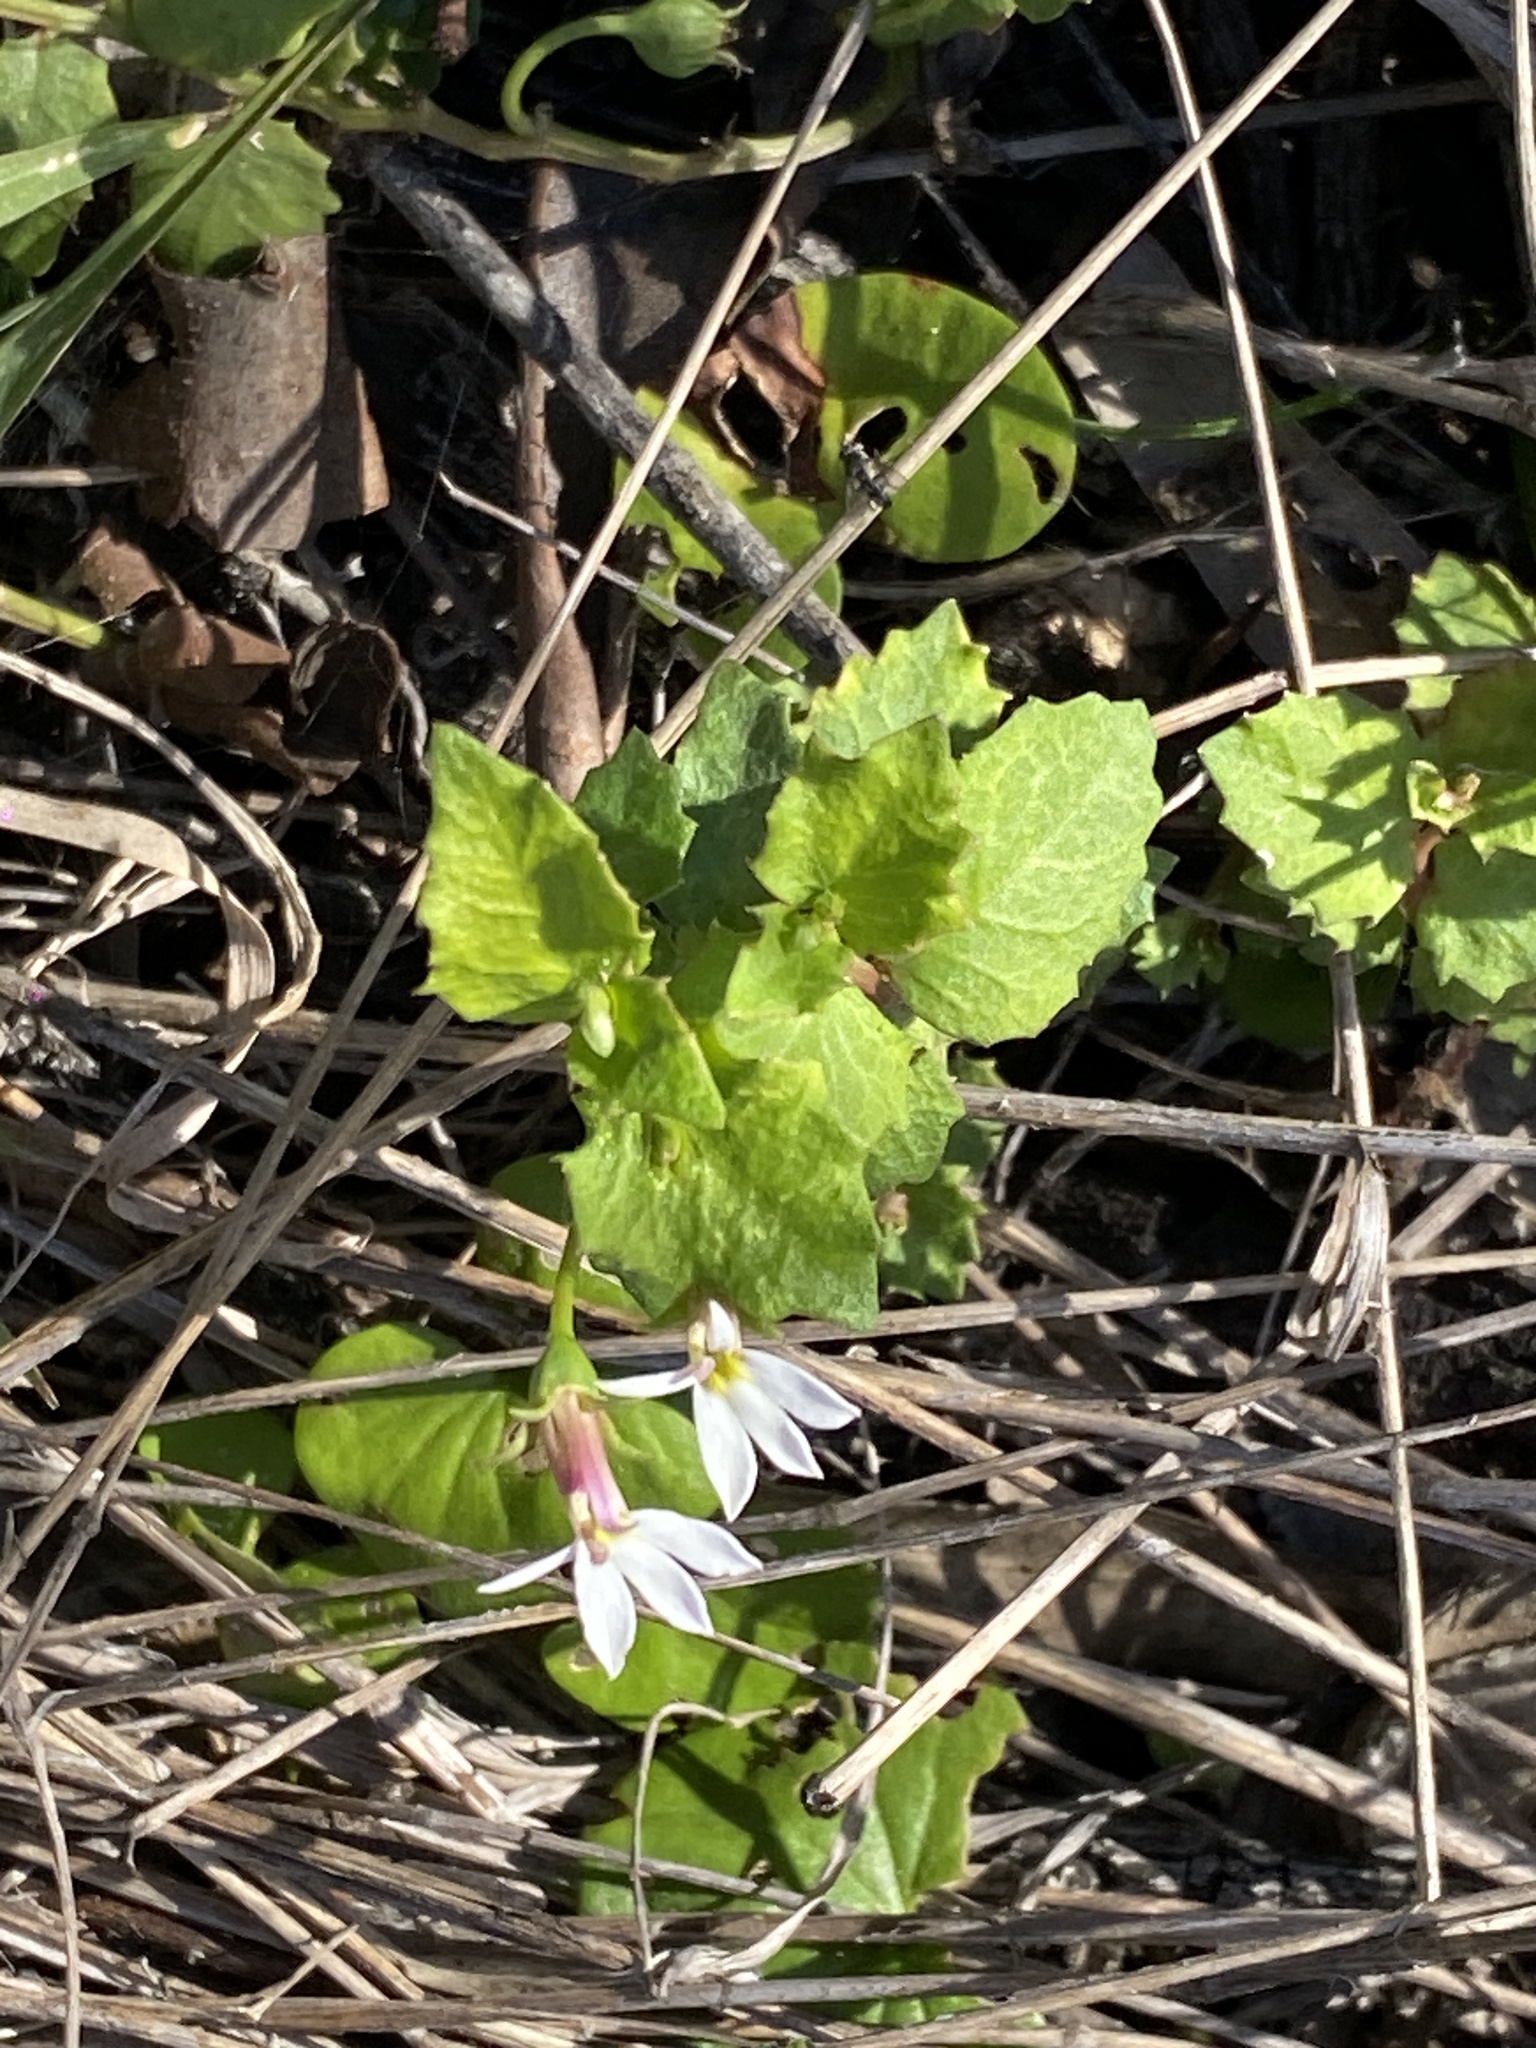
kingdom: Plantae
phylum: Tracheophyta
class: Magnoliopsida
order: Asterales
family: Campanulaceae
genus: Lobelia
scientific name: Lobelia purpurascens
